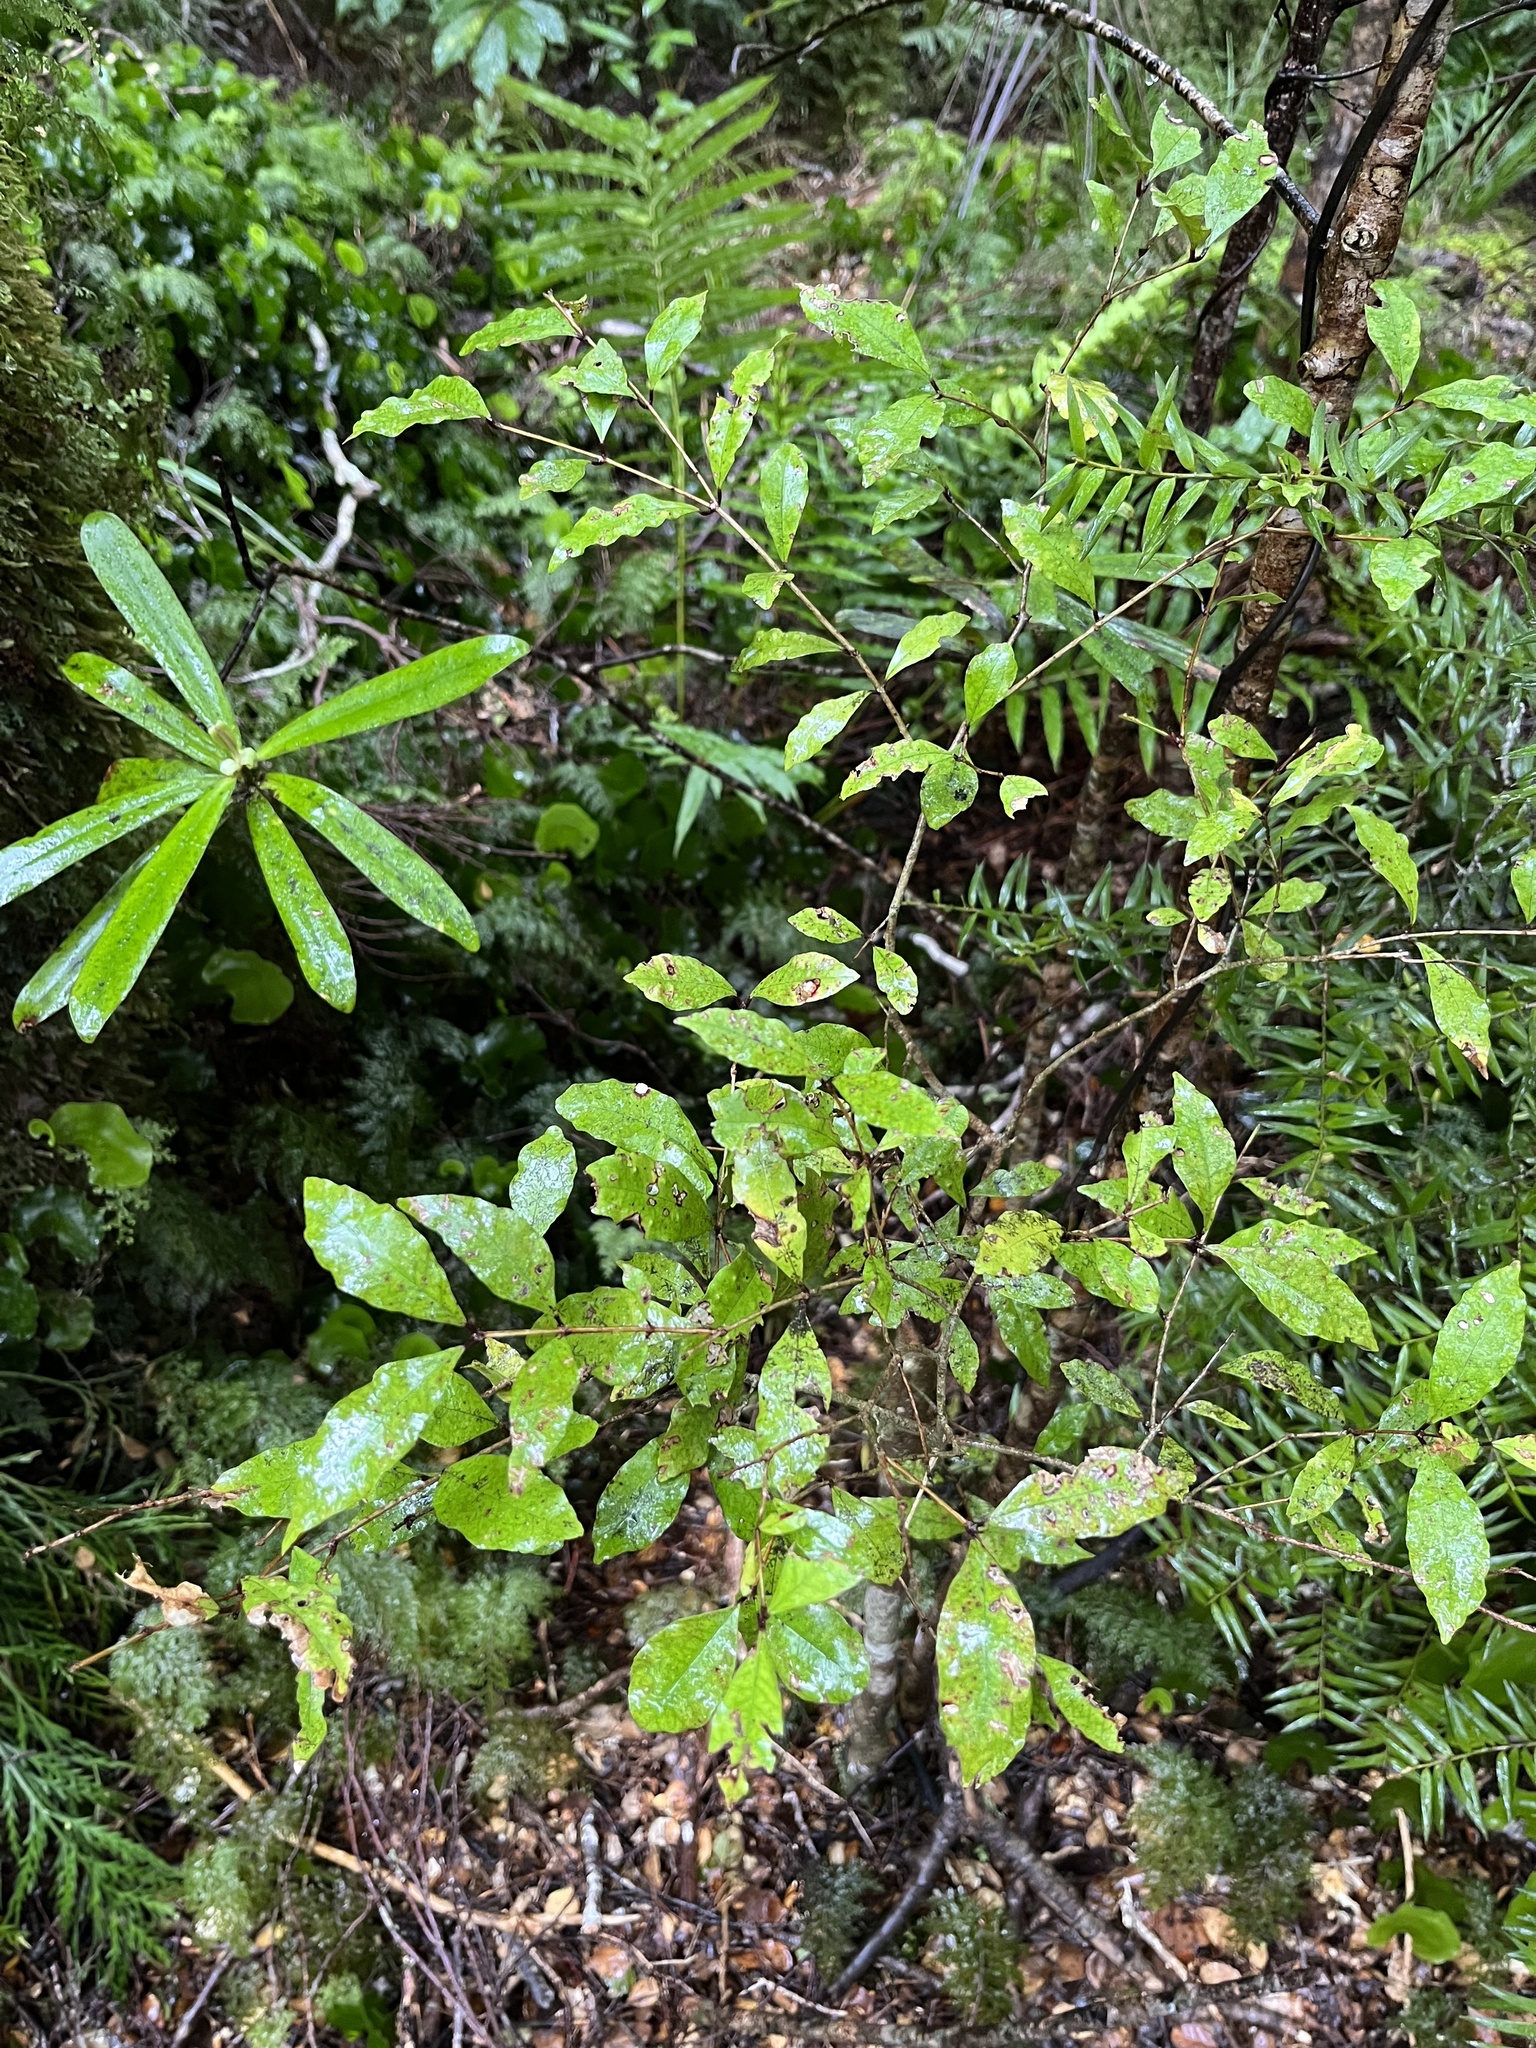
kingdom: Plantae
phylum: Tracheophyta
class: Magnoliopsida
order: Myrtales
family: Myrtaceae
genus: Syzygium
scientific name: Syzygium maire
